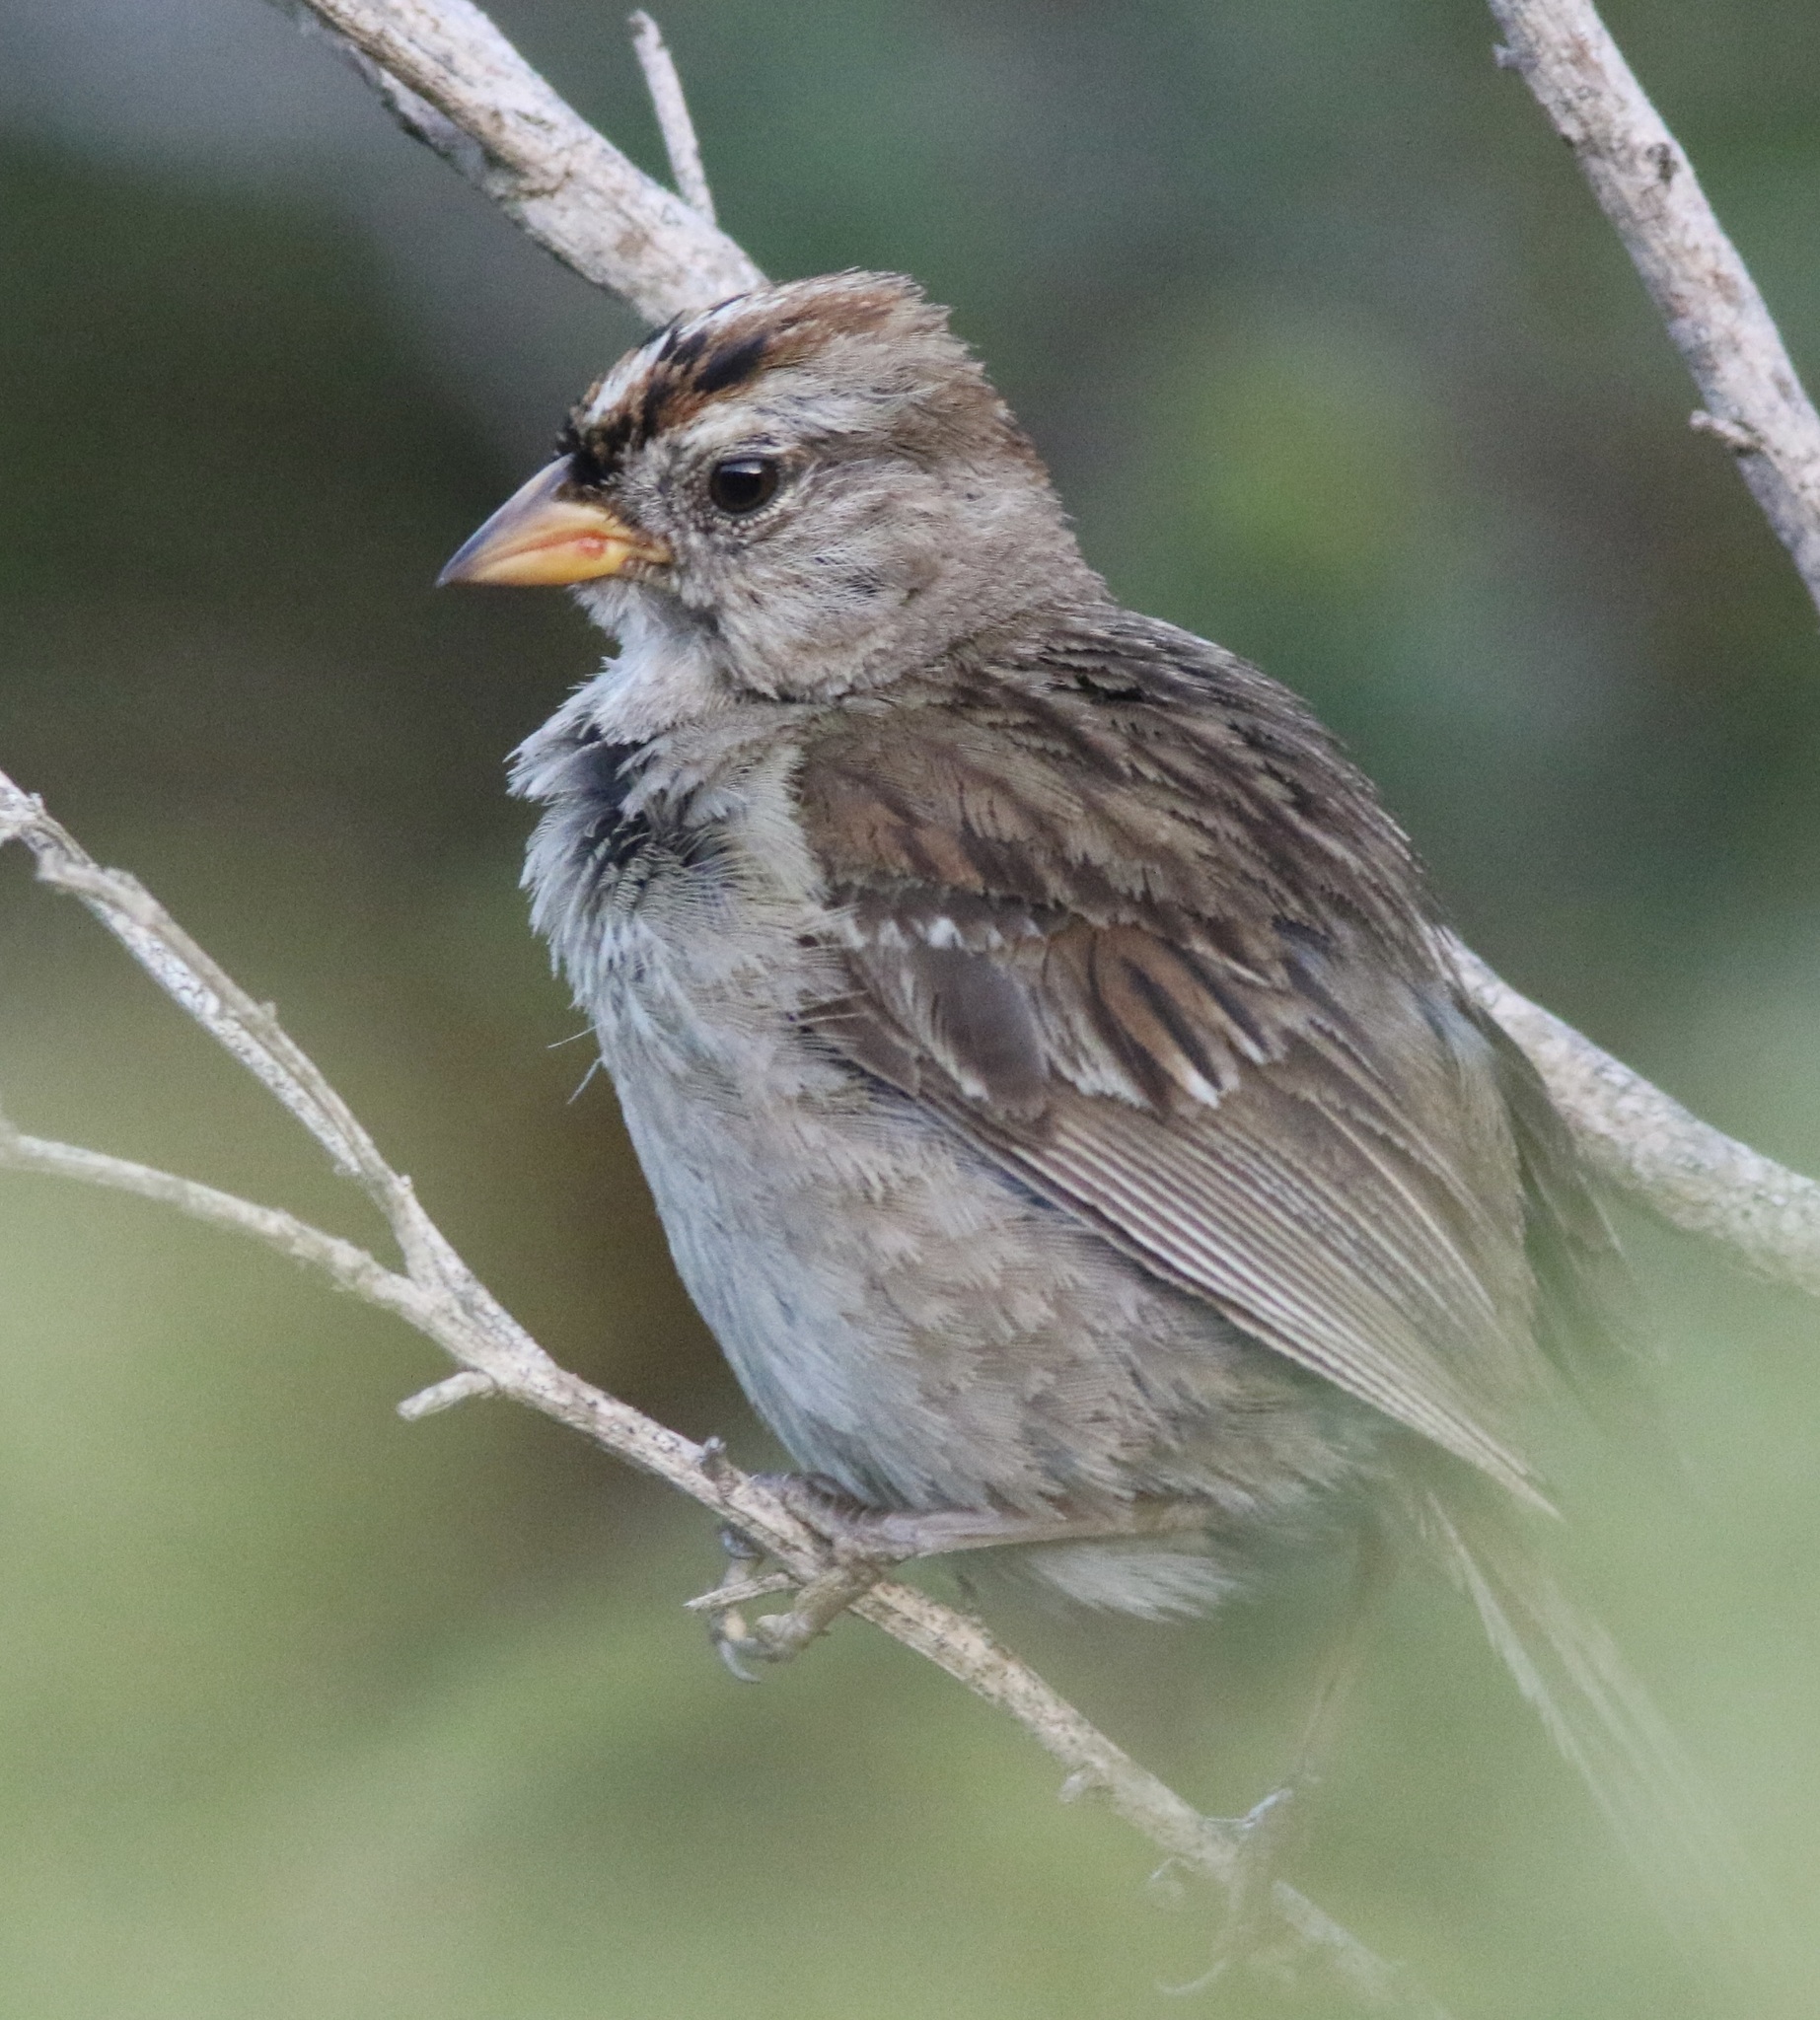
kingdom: Animalia
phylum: Chordata
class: Aves
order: Passeriformes
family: Passerellidae
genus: Zonotrichia
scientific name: Zonotrichia leucophrys
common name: White-crowned sparrow
